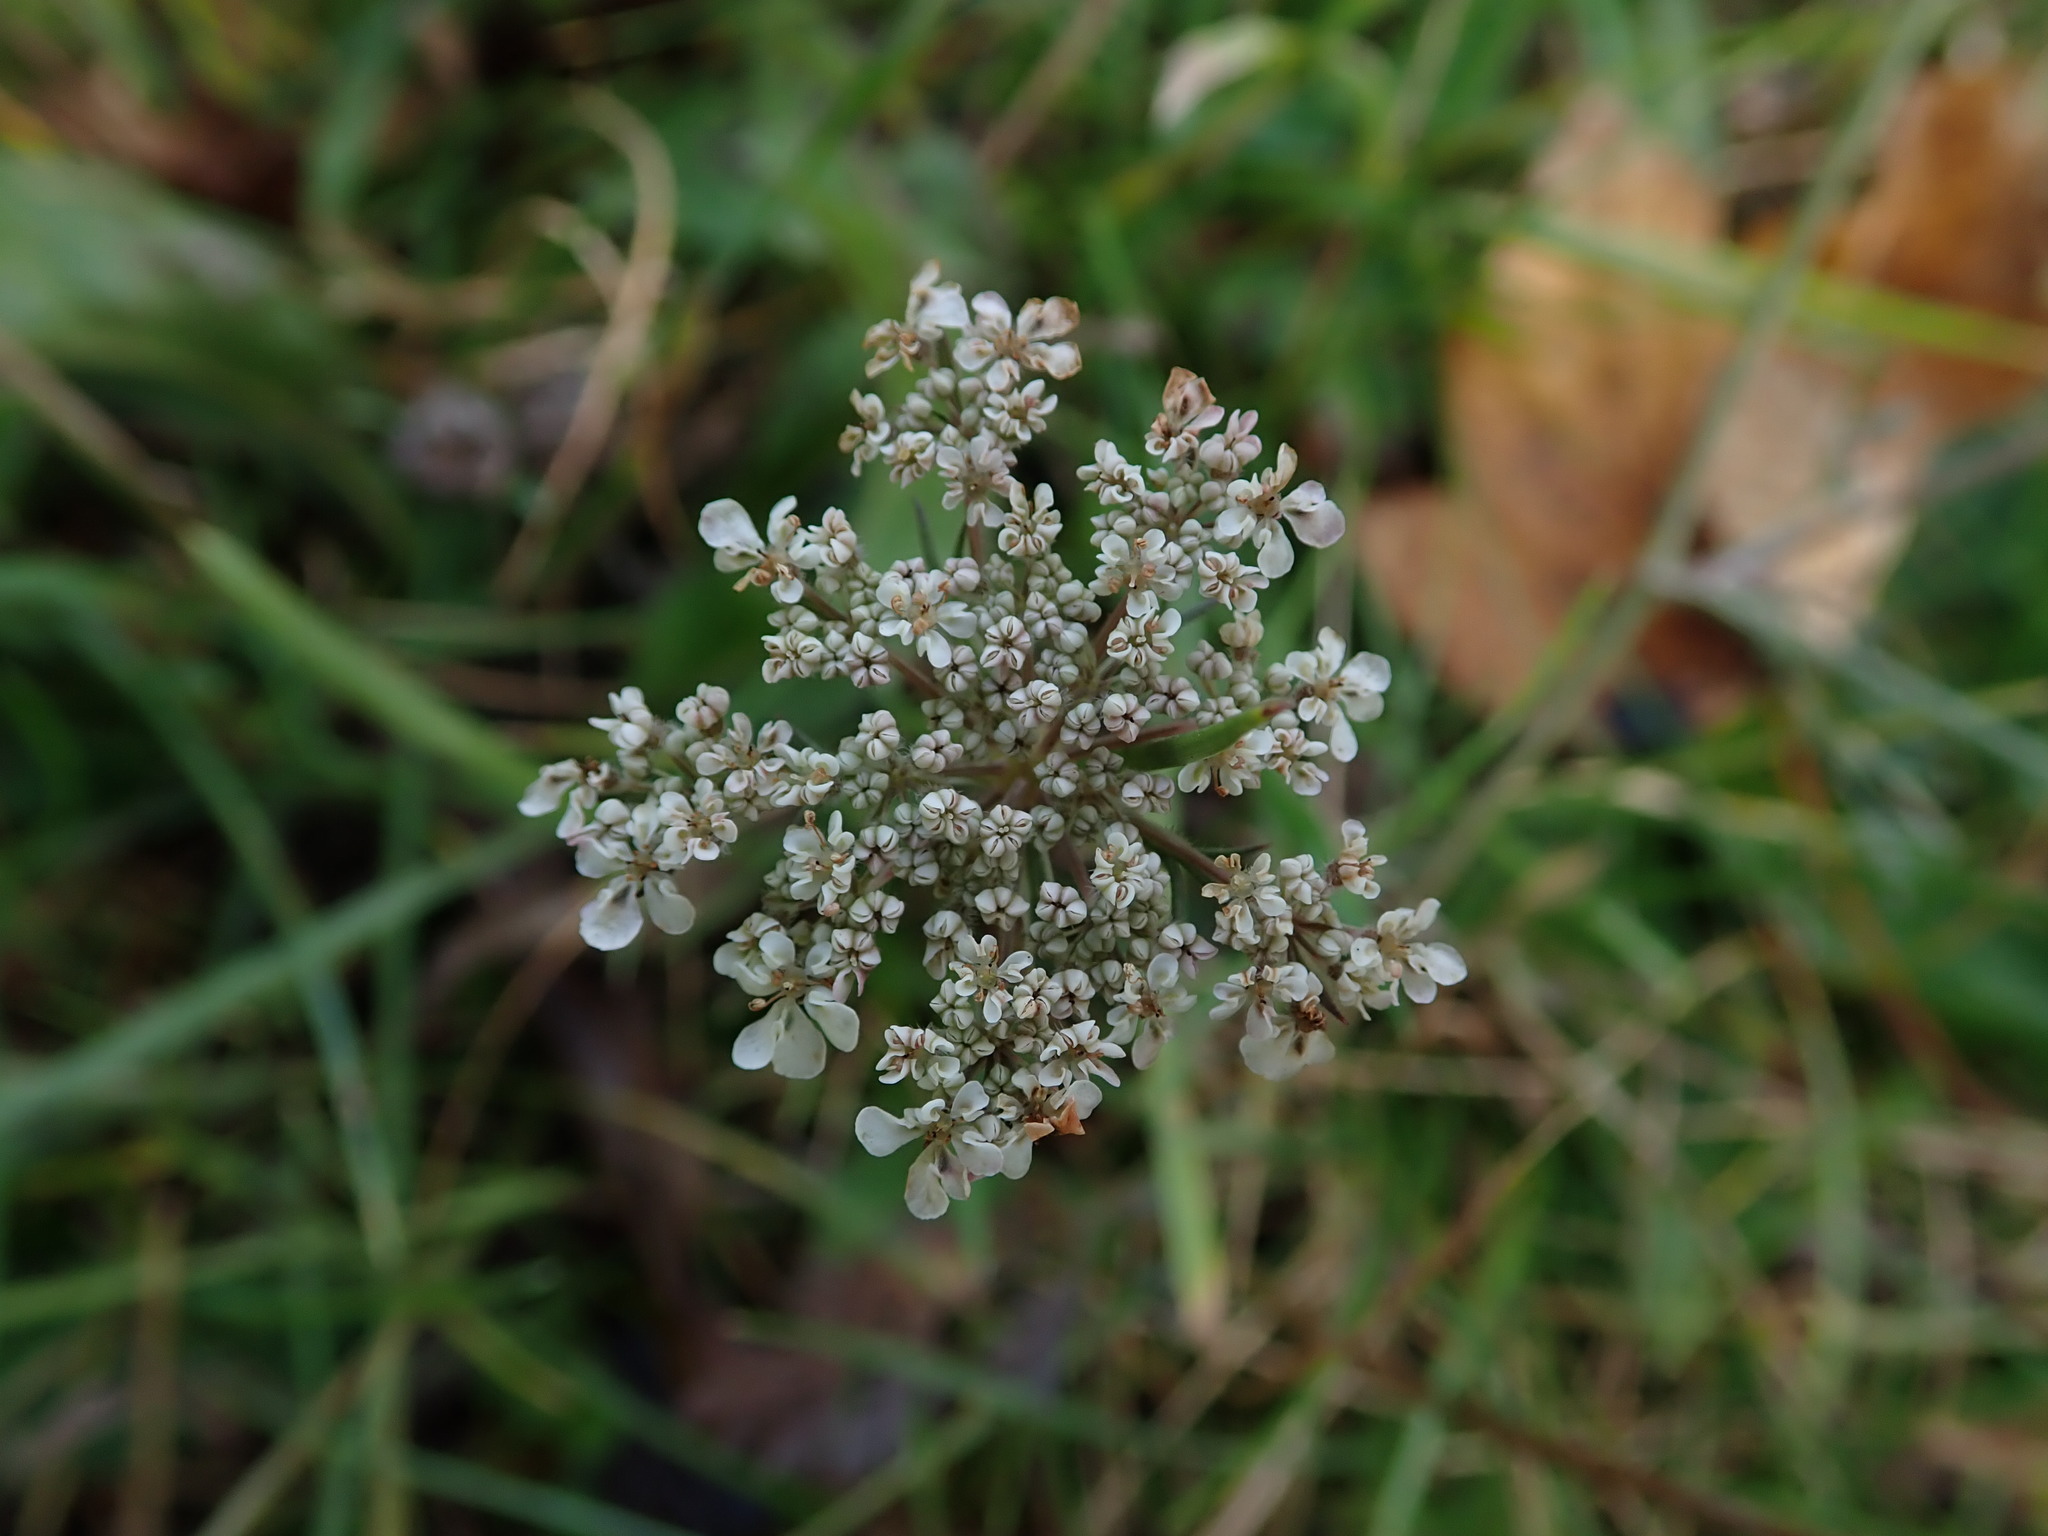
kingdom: Plantae
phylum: Tracheophyta
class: Magnoliopsida
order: Apiales
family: Apiaceae
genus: Daucus
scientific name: Daucus carota
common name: Wild carrot
